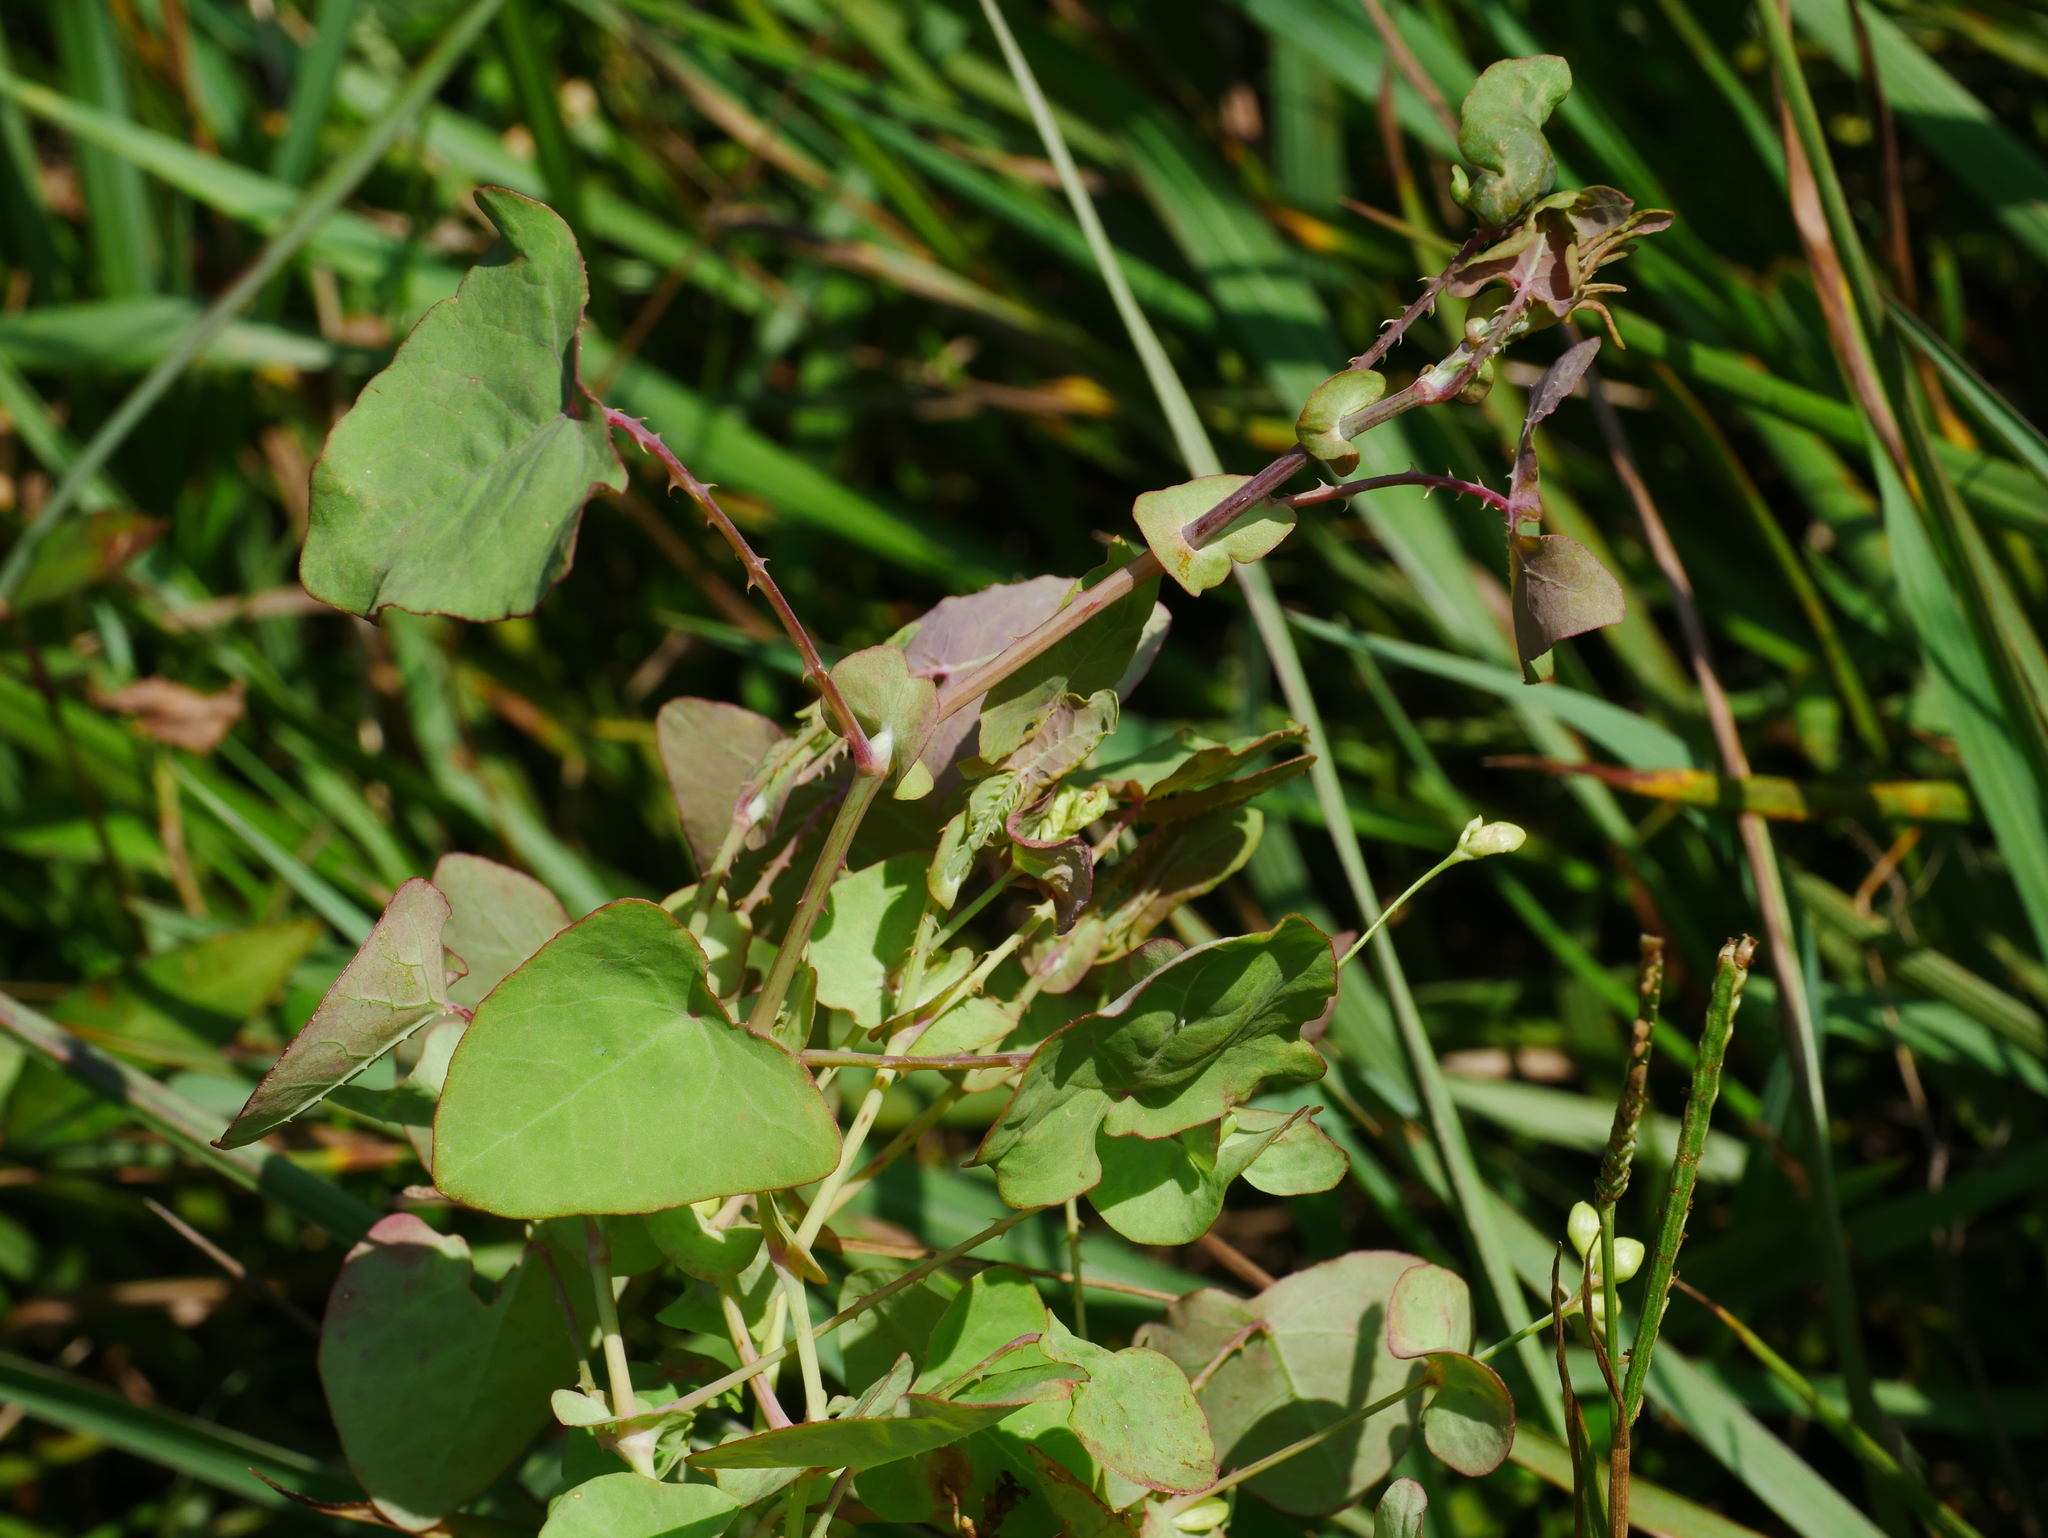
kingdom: Plantae
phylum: Tracheophyta
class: Magnoliopsida
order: Caryophyllales
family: Polygonaceae
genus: Persicaria
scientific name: Persicaria perfoliata
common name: Asiatic tearthumb
